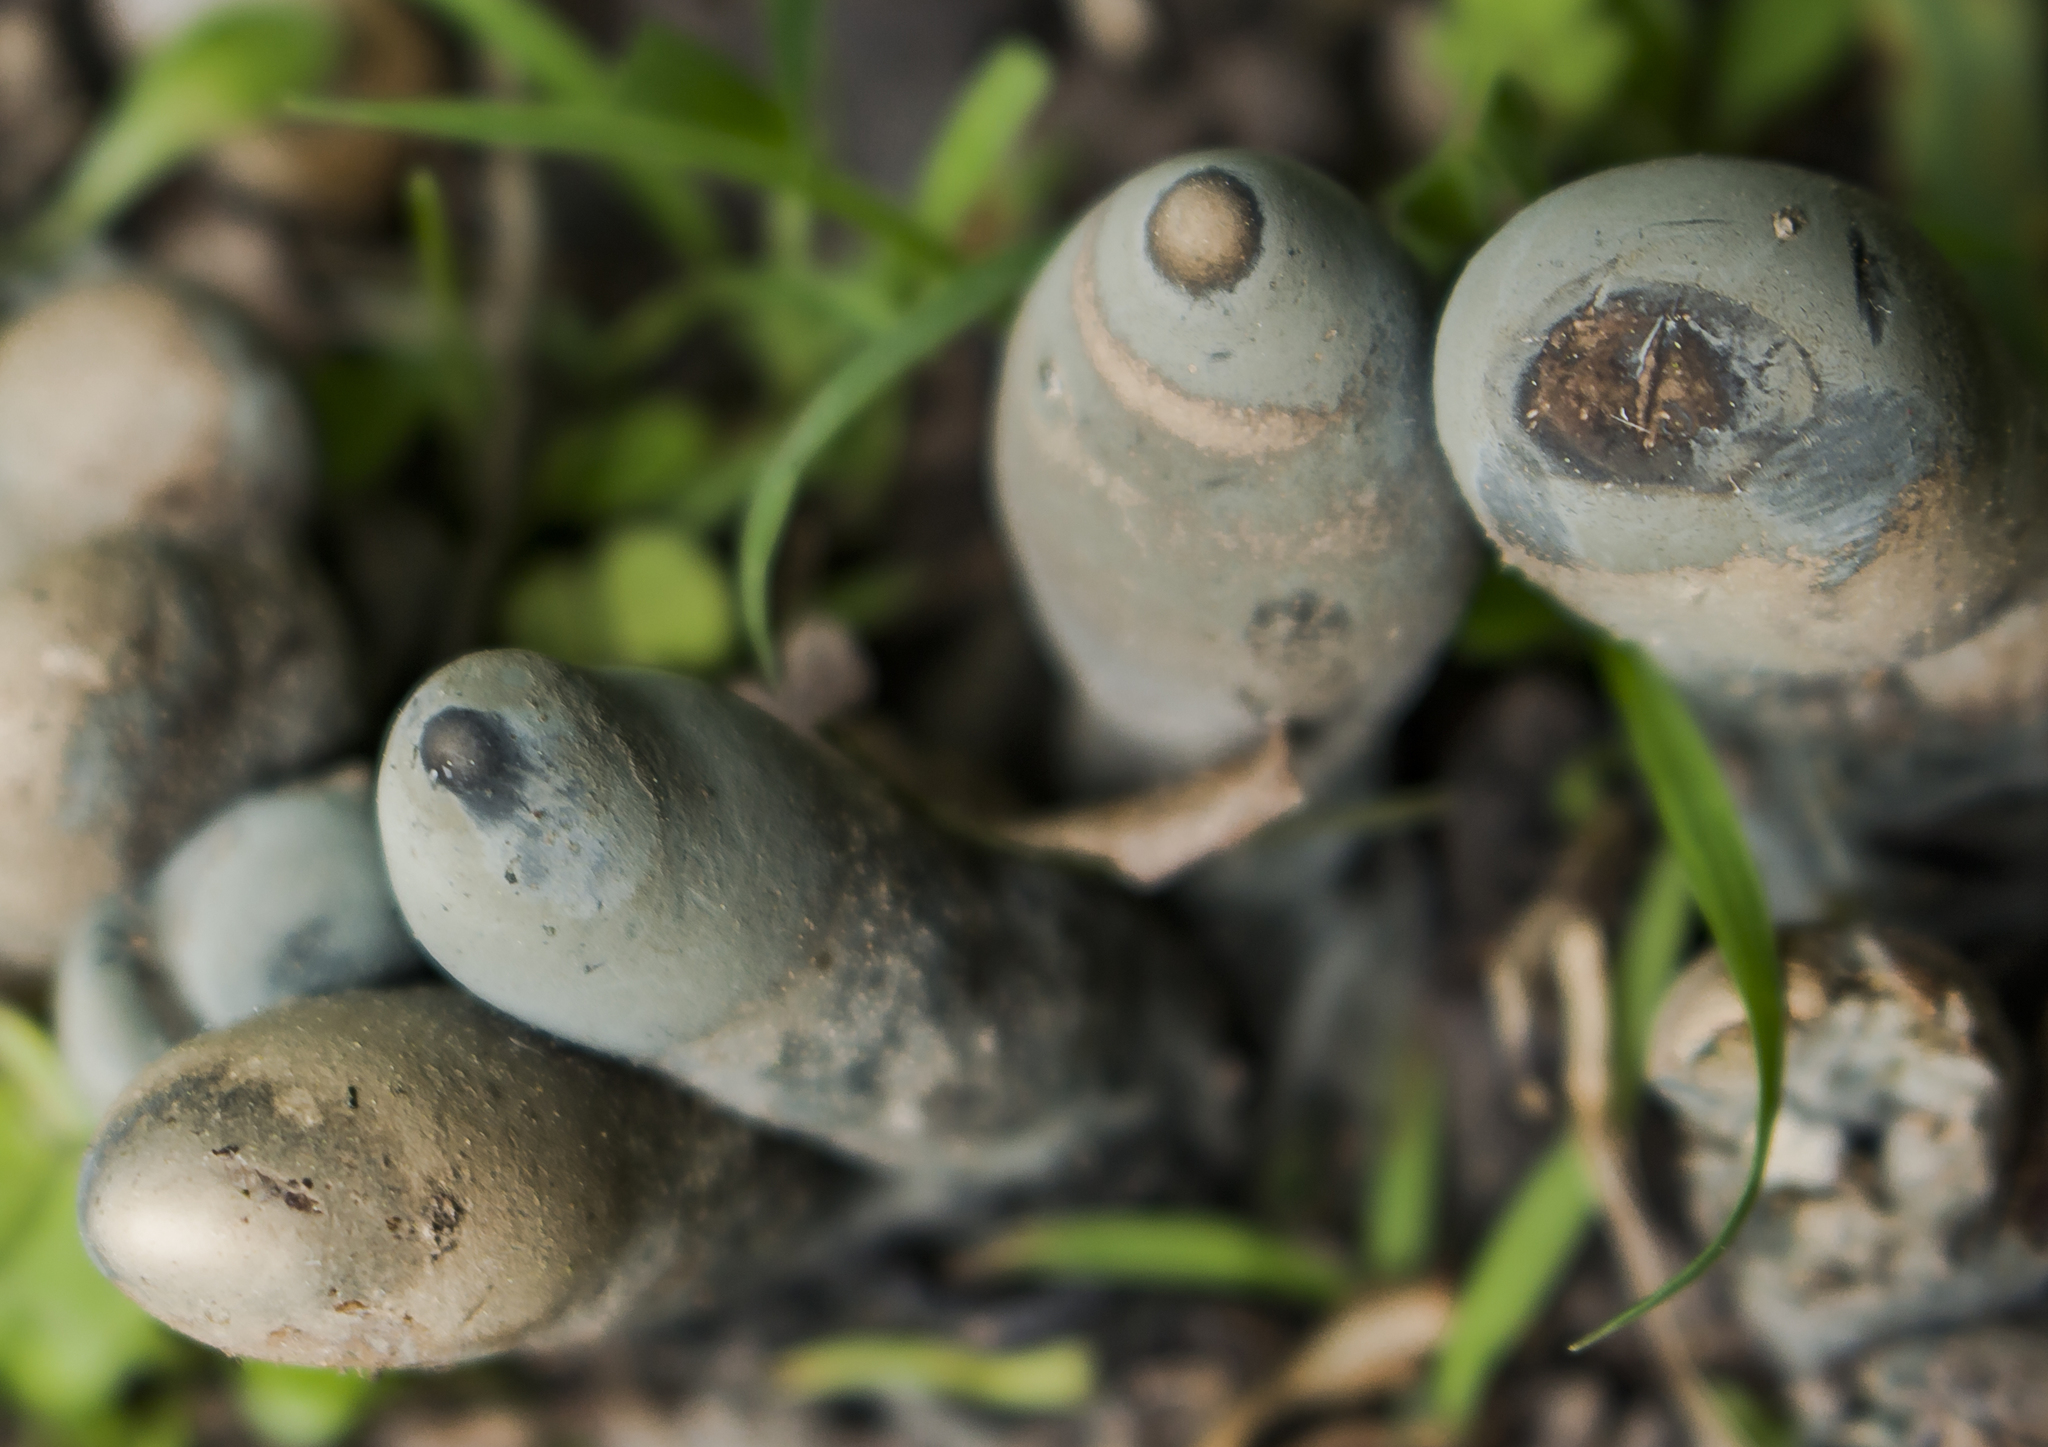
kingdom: Fungi
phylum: Ascomycota
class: Sordariomycetes
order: Xylariales
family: Xylariaceae
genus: Xylaria
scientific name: Xylaria polymorpha
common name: Dead man's fingers
